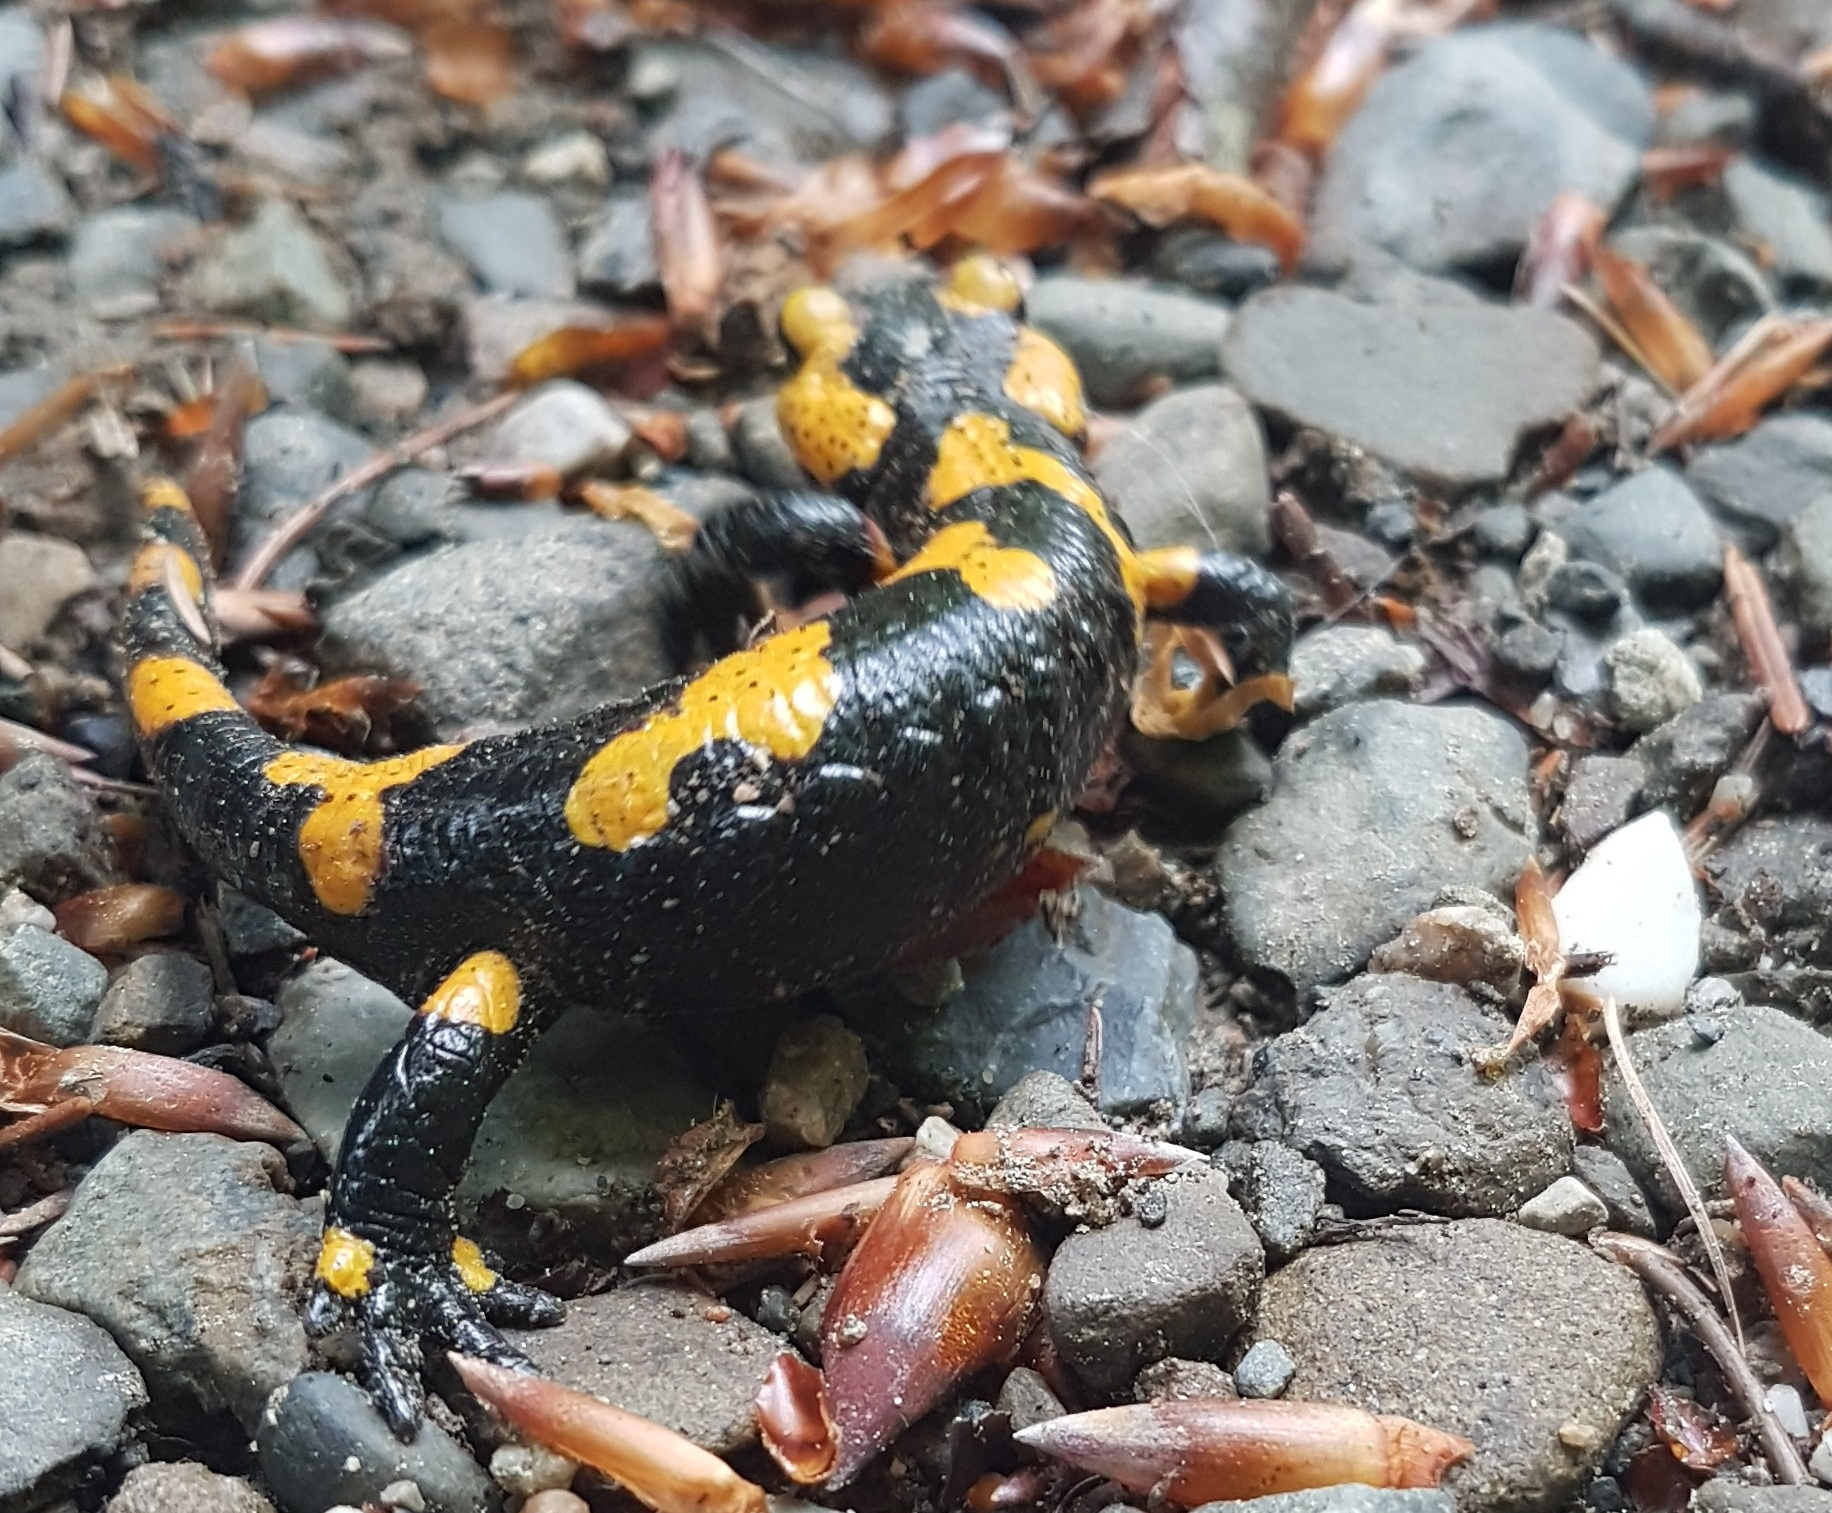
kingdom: Animalia
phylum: Chordata
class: Amphibia
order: Caudata
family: Salamandridae
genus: Salamandra
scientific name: Salamandra salamandra
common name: Fire salamander
